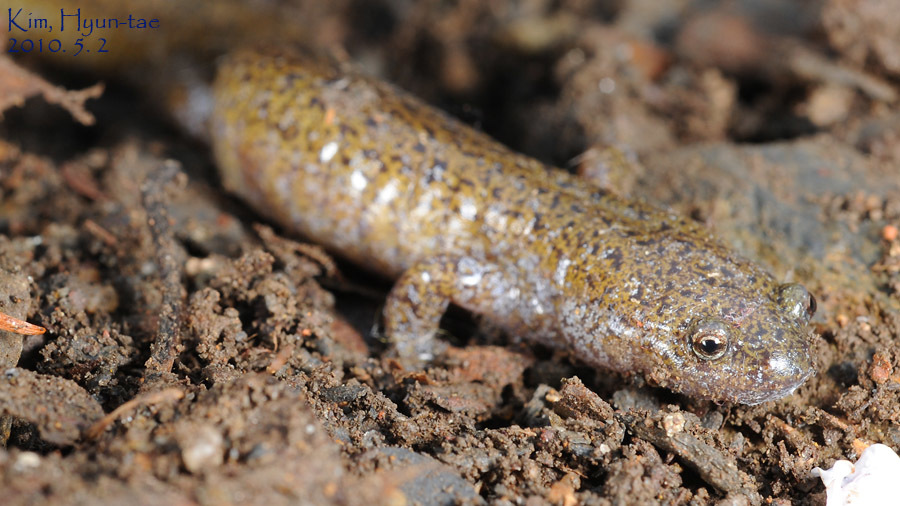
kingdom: Animalia
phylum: Chordata
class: Amphibia
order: Caudata
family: Hynobiidae
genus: Hynobius
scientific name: Hynobius leechii
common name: Gensan salamander
